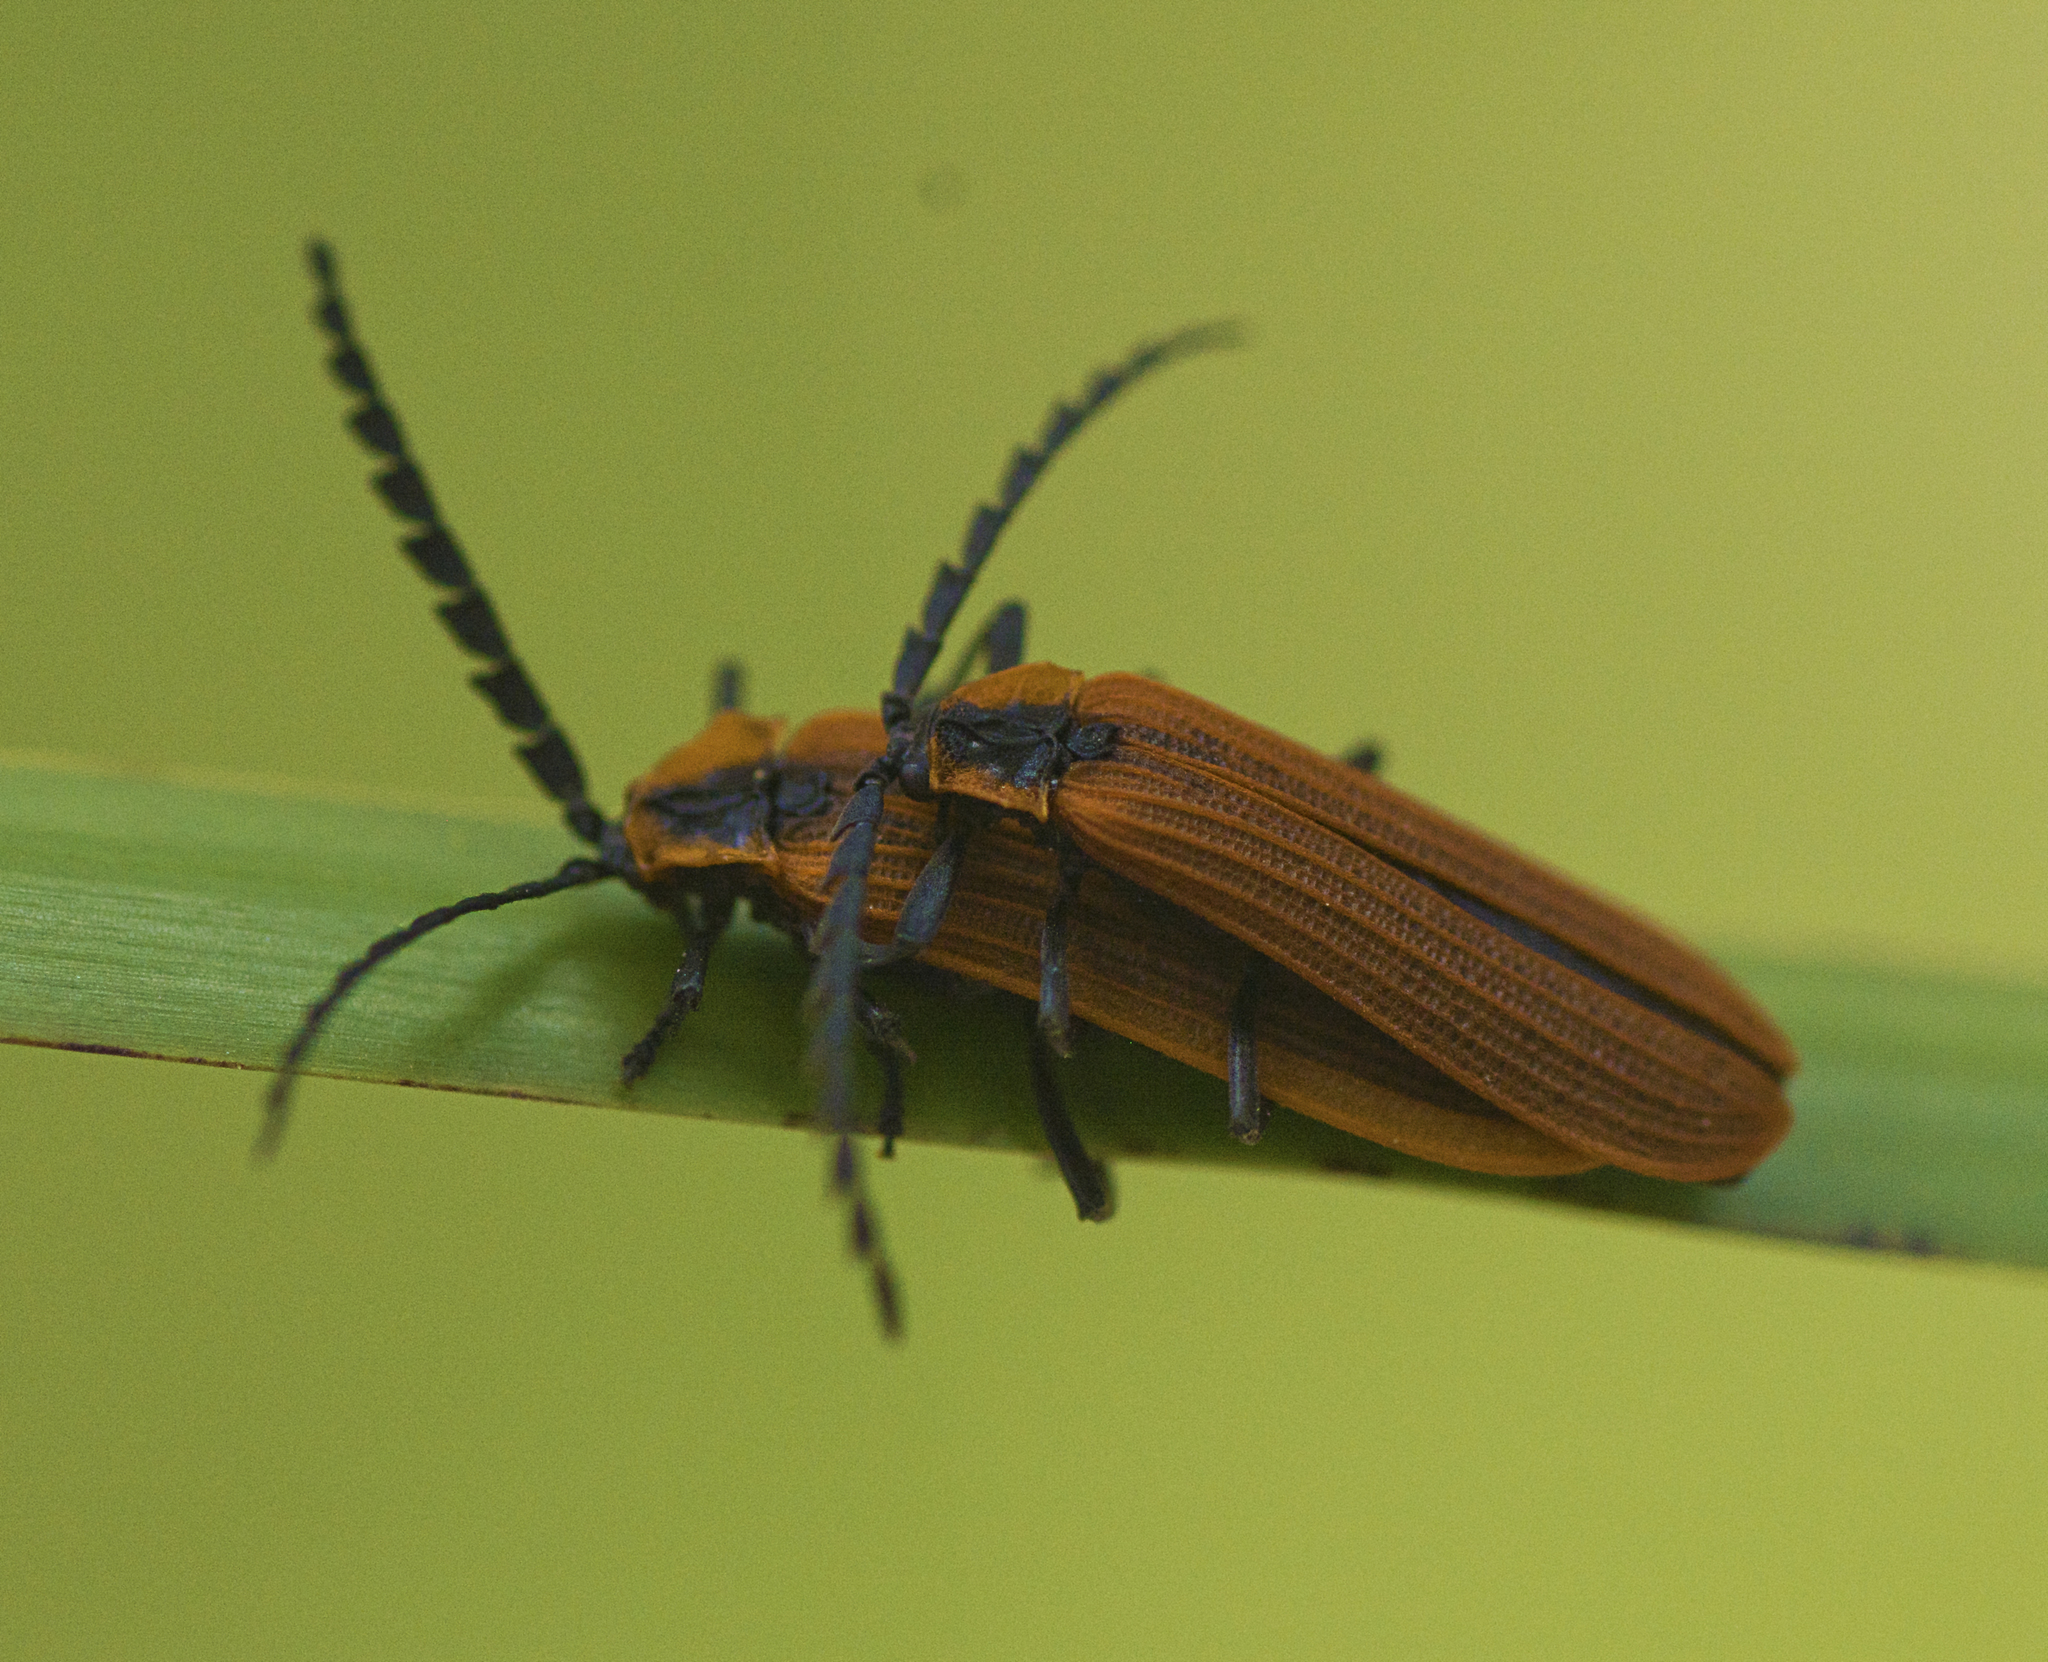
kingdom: Animalia
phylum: Arthropoda
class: Insecta
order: Coleoptera
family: Lycidae
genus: Trichalus
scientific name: Trichalus
